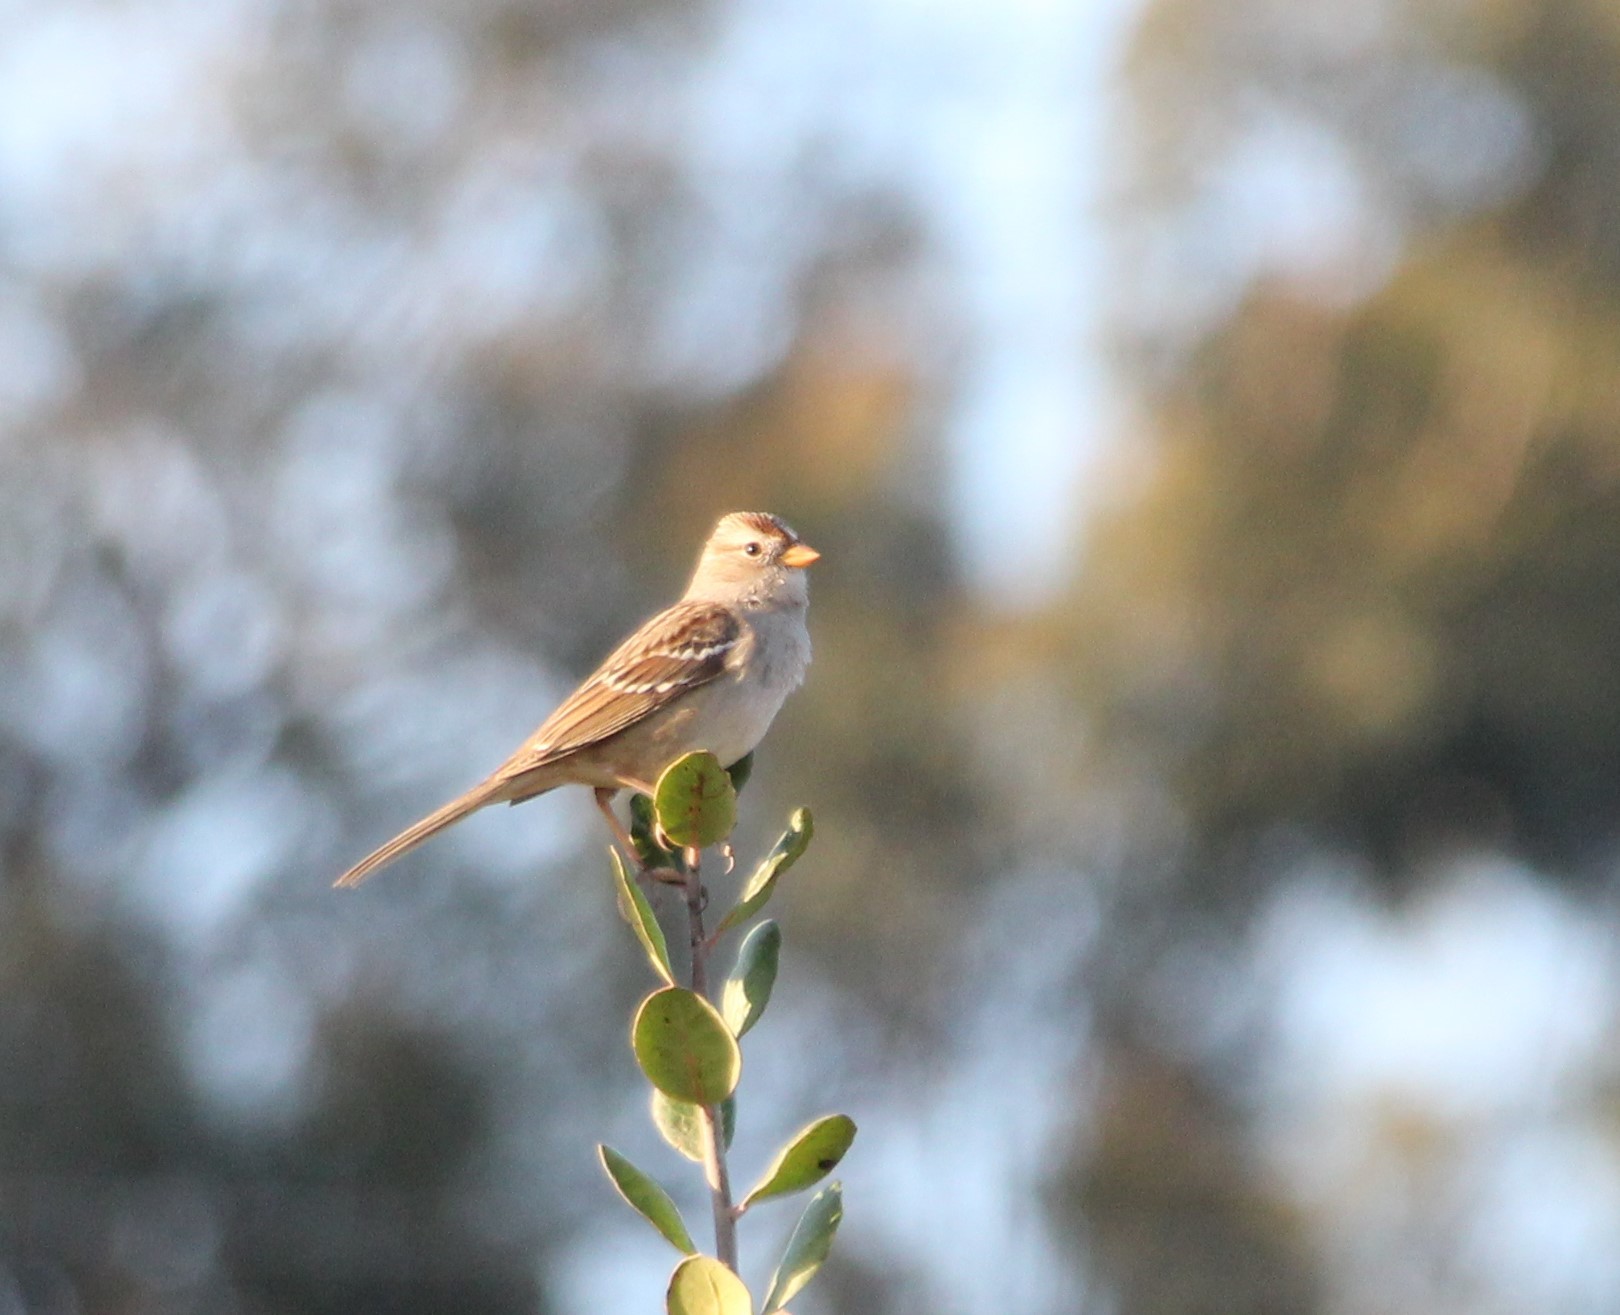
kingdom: Animalia
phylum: Chordata
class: Aves
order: Passeriformes
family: Passerellidae
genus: Zonotrichia
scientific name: Zonotrichia leucophrys
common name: White-crowned sparrow
